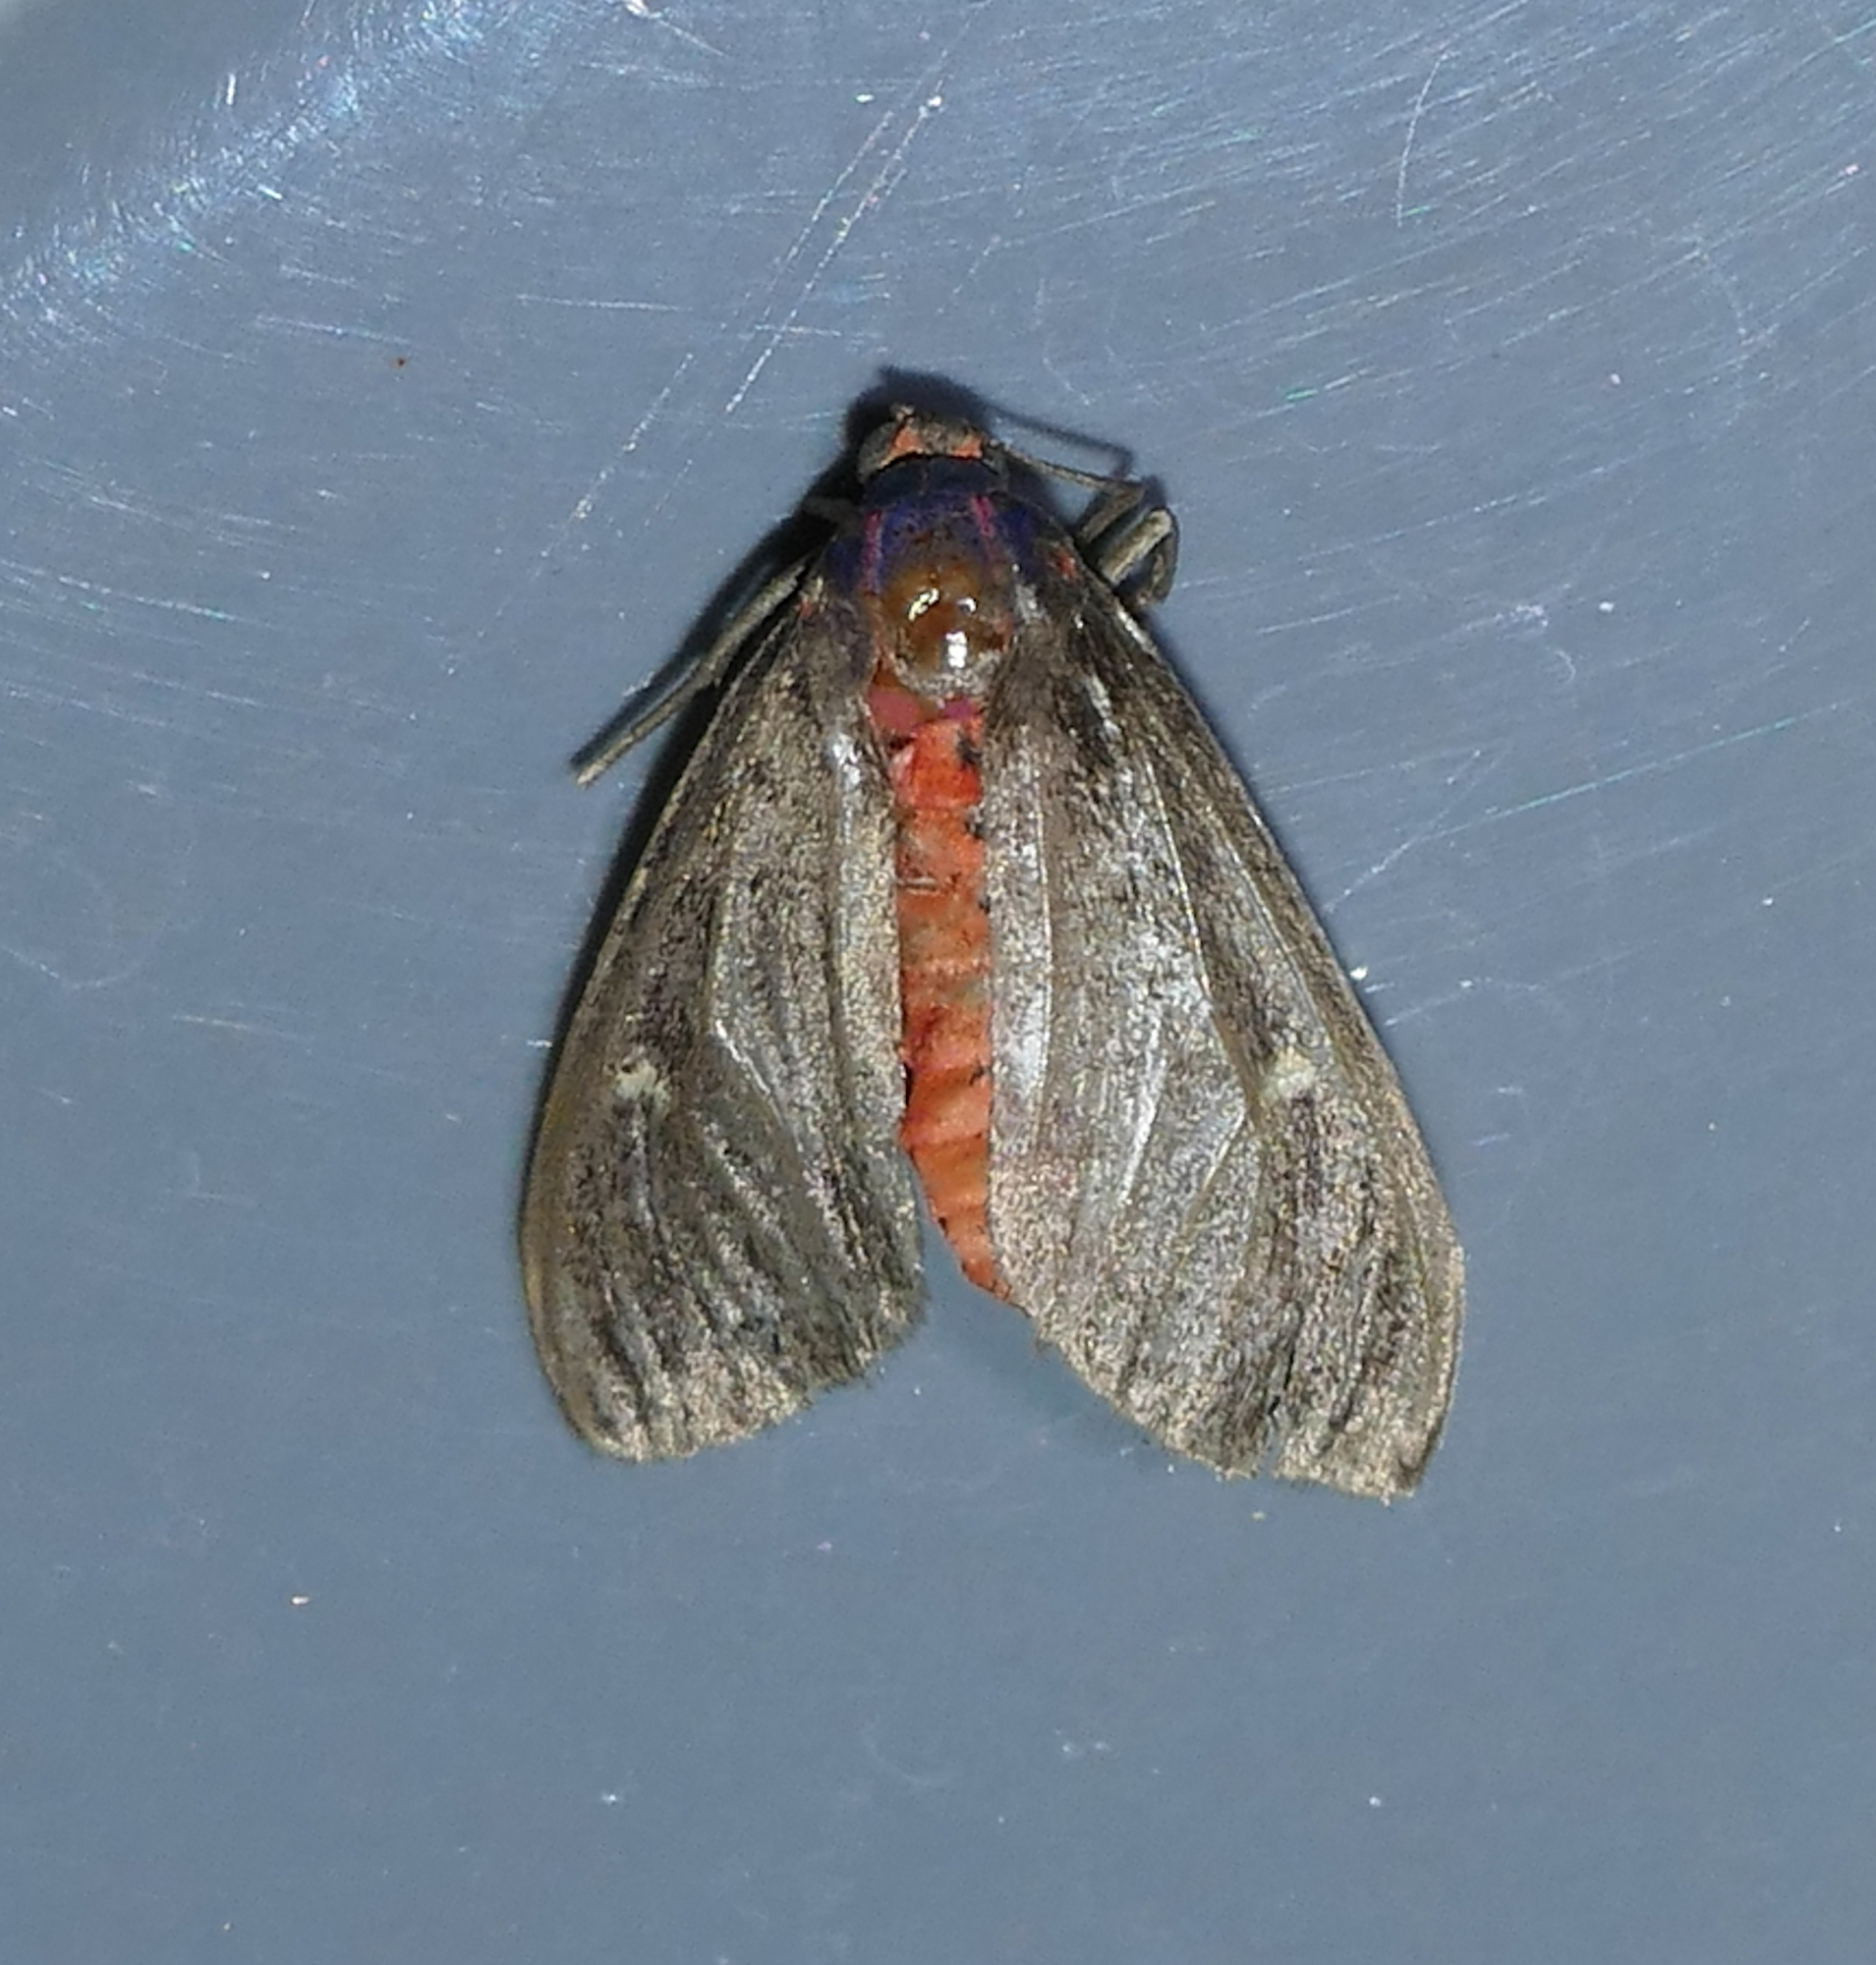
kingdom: Animalia
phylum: Arthropoda
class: Insecta
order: Lepidoptera
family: Erebidae
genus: Euchaetes
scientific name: Euchaetes zella
